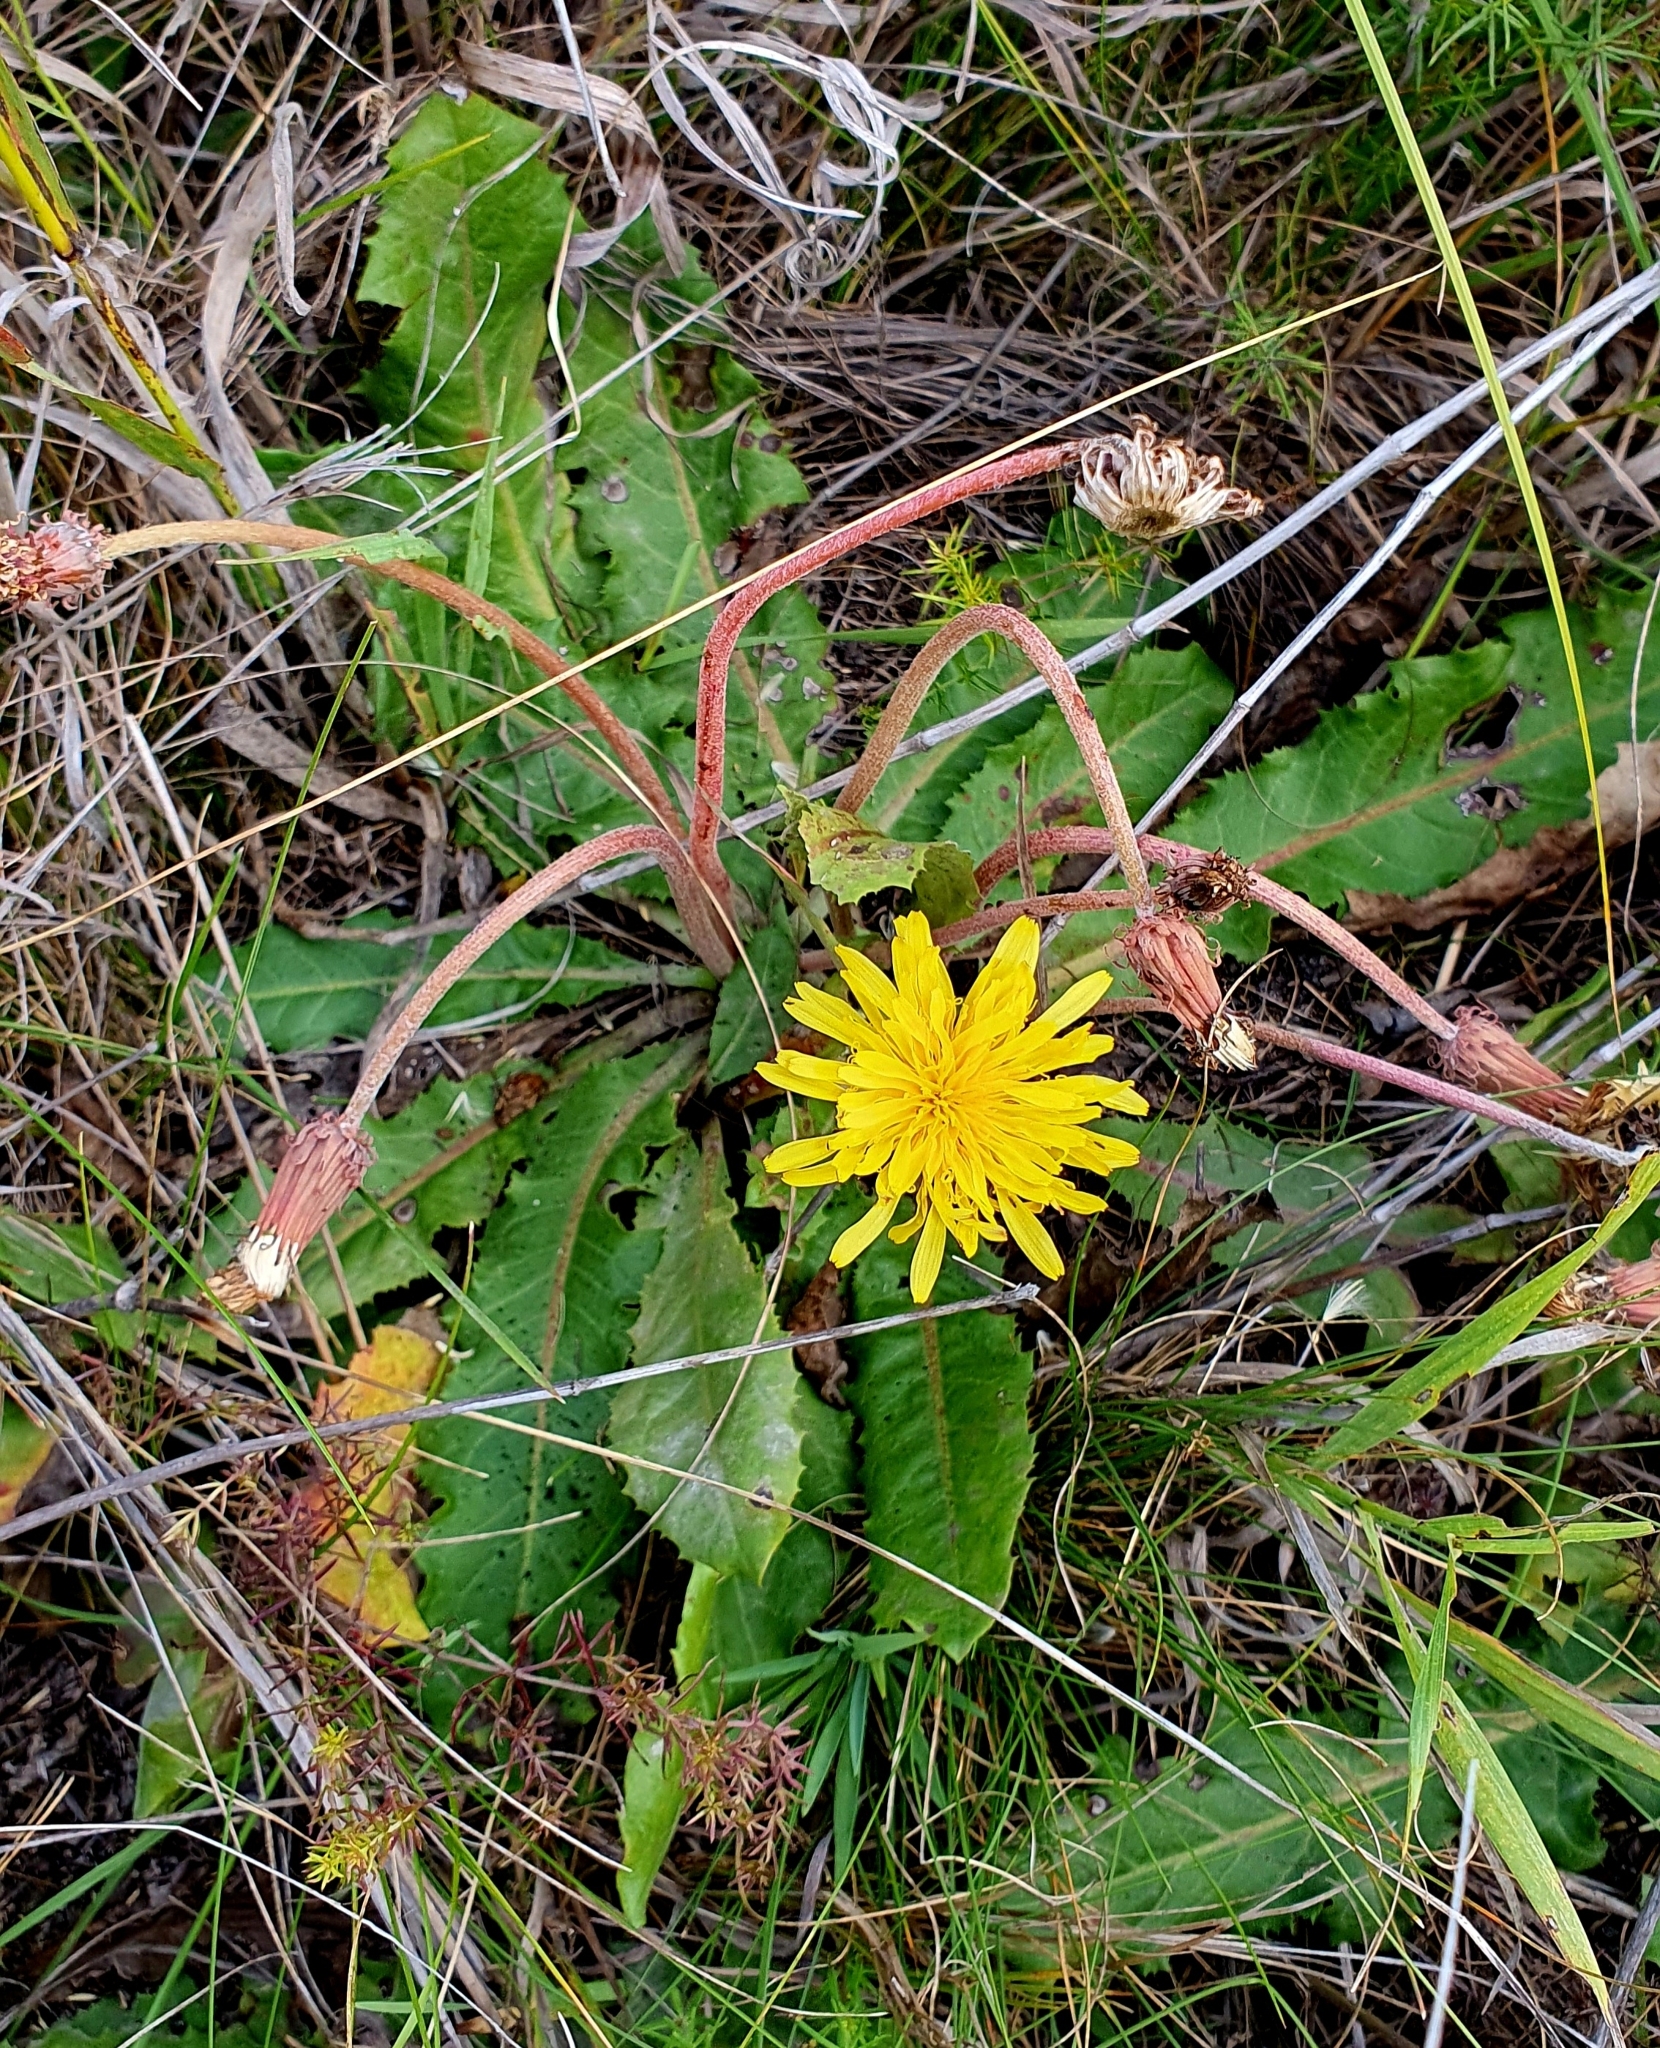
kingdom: Plantae
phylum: Tracheophyta
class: Magnoliopsida
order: Asterales
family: Asteraceae
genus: Taraxacum
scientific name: Taraxacum serotinum
